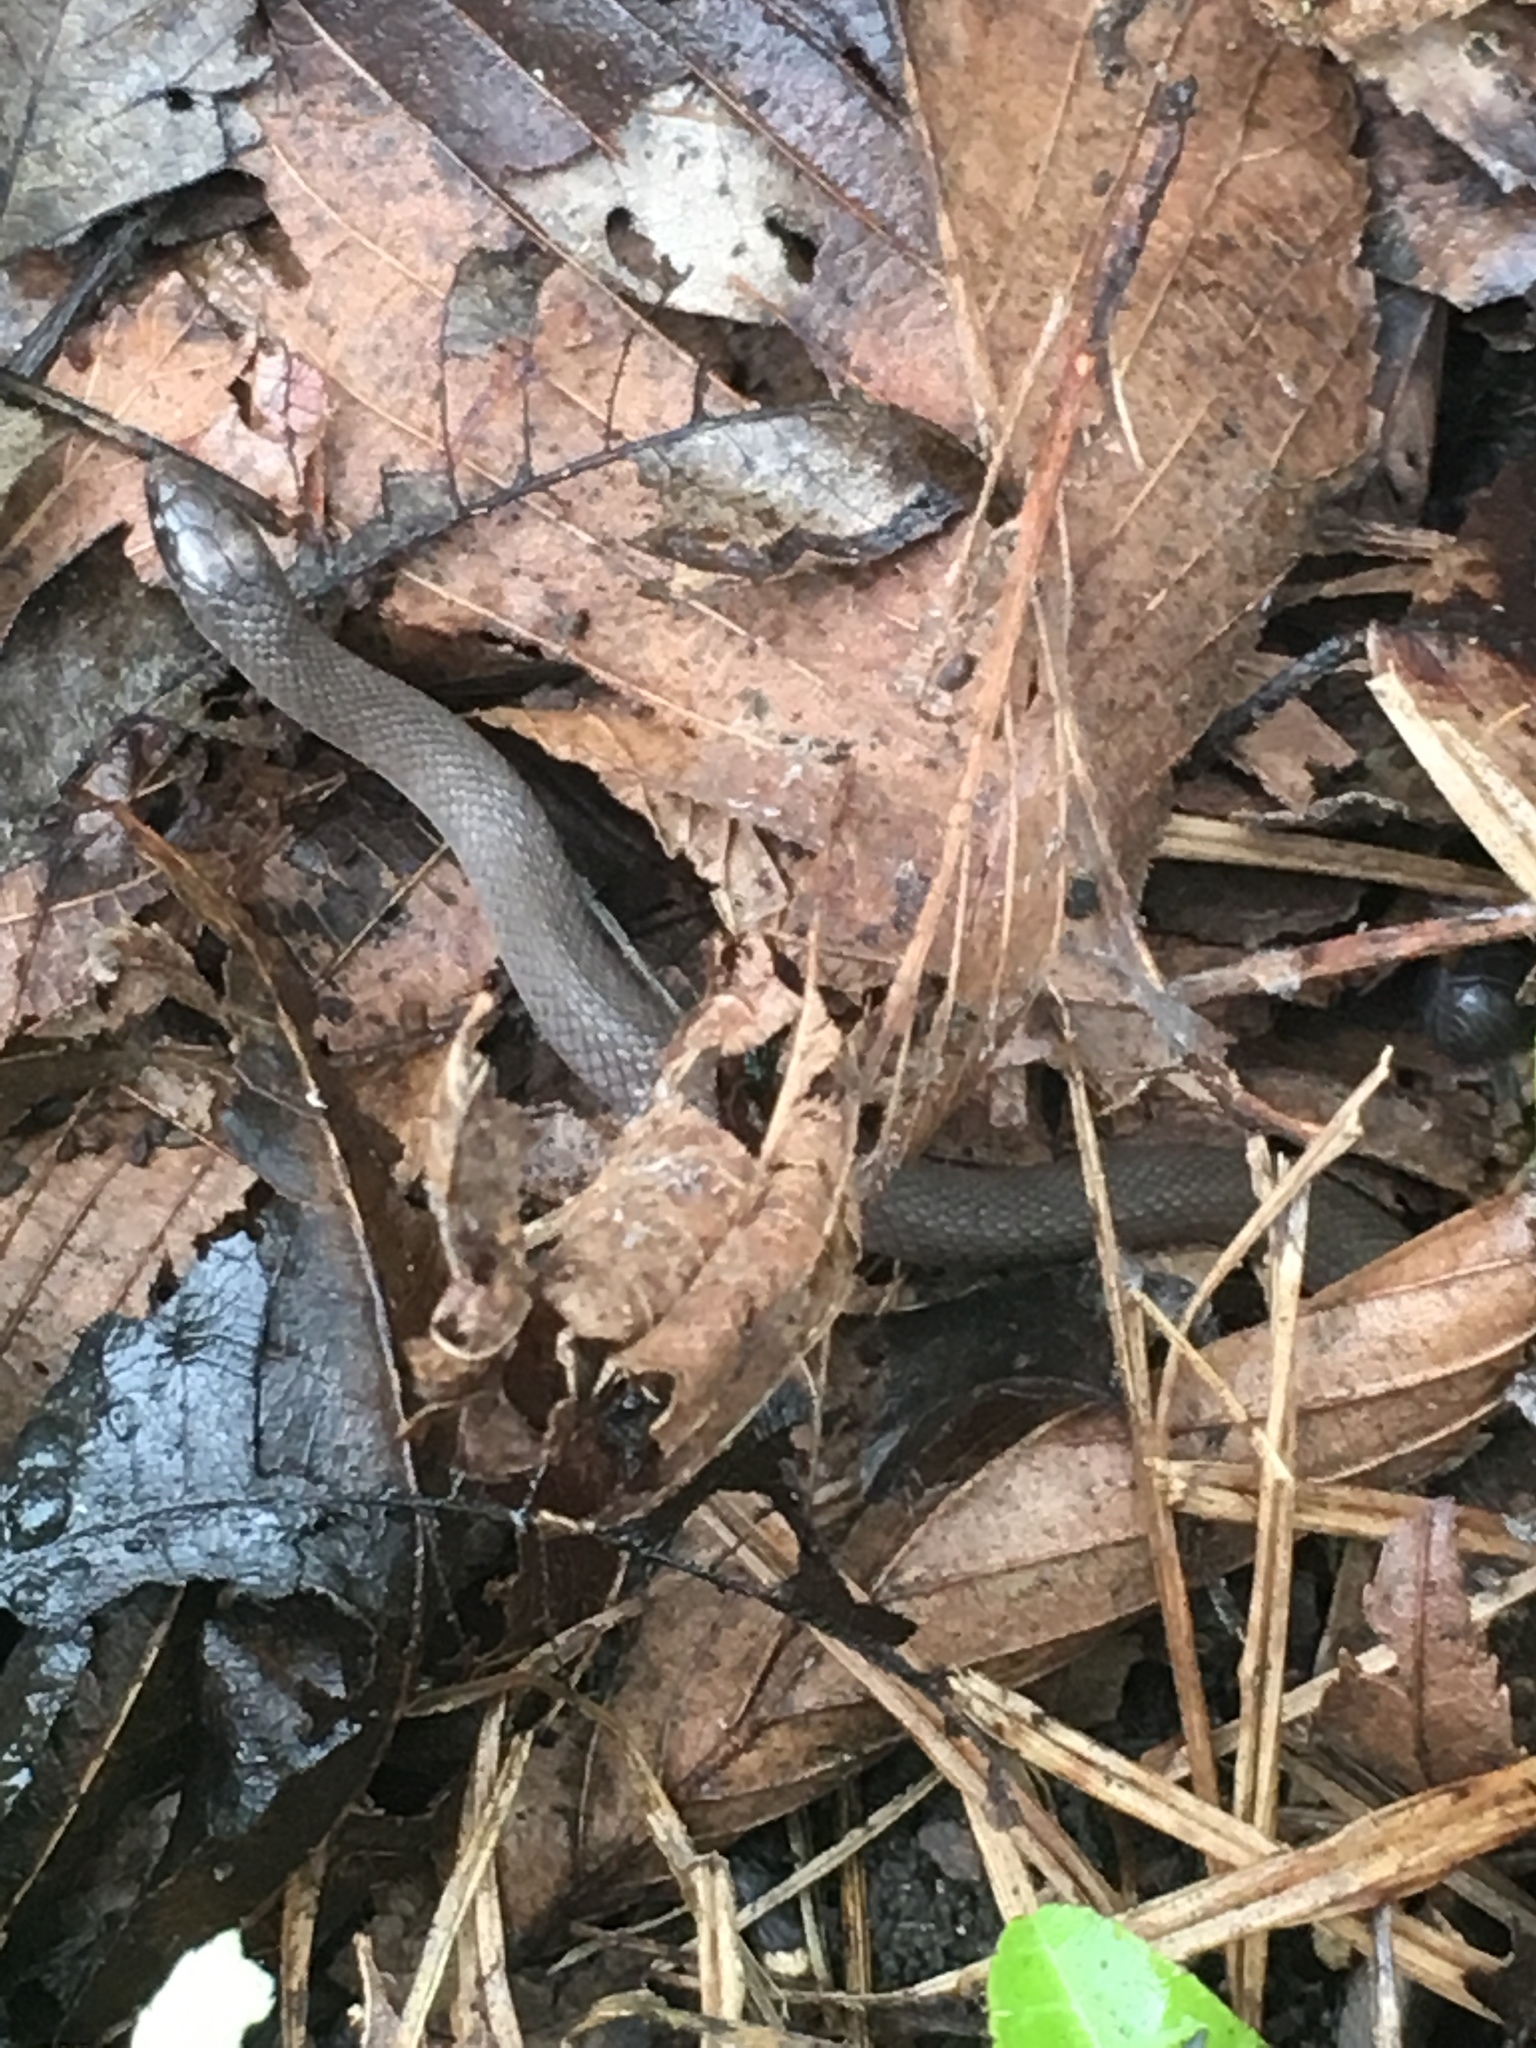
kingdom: Animalia
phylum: Chordata
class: Squamata
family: Colubridae
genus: Haldea
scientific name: Haldea striatula
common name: Rough earth snake
